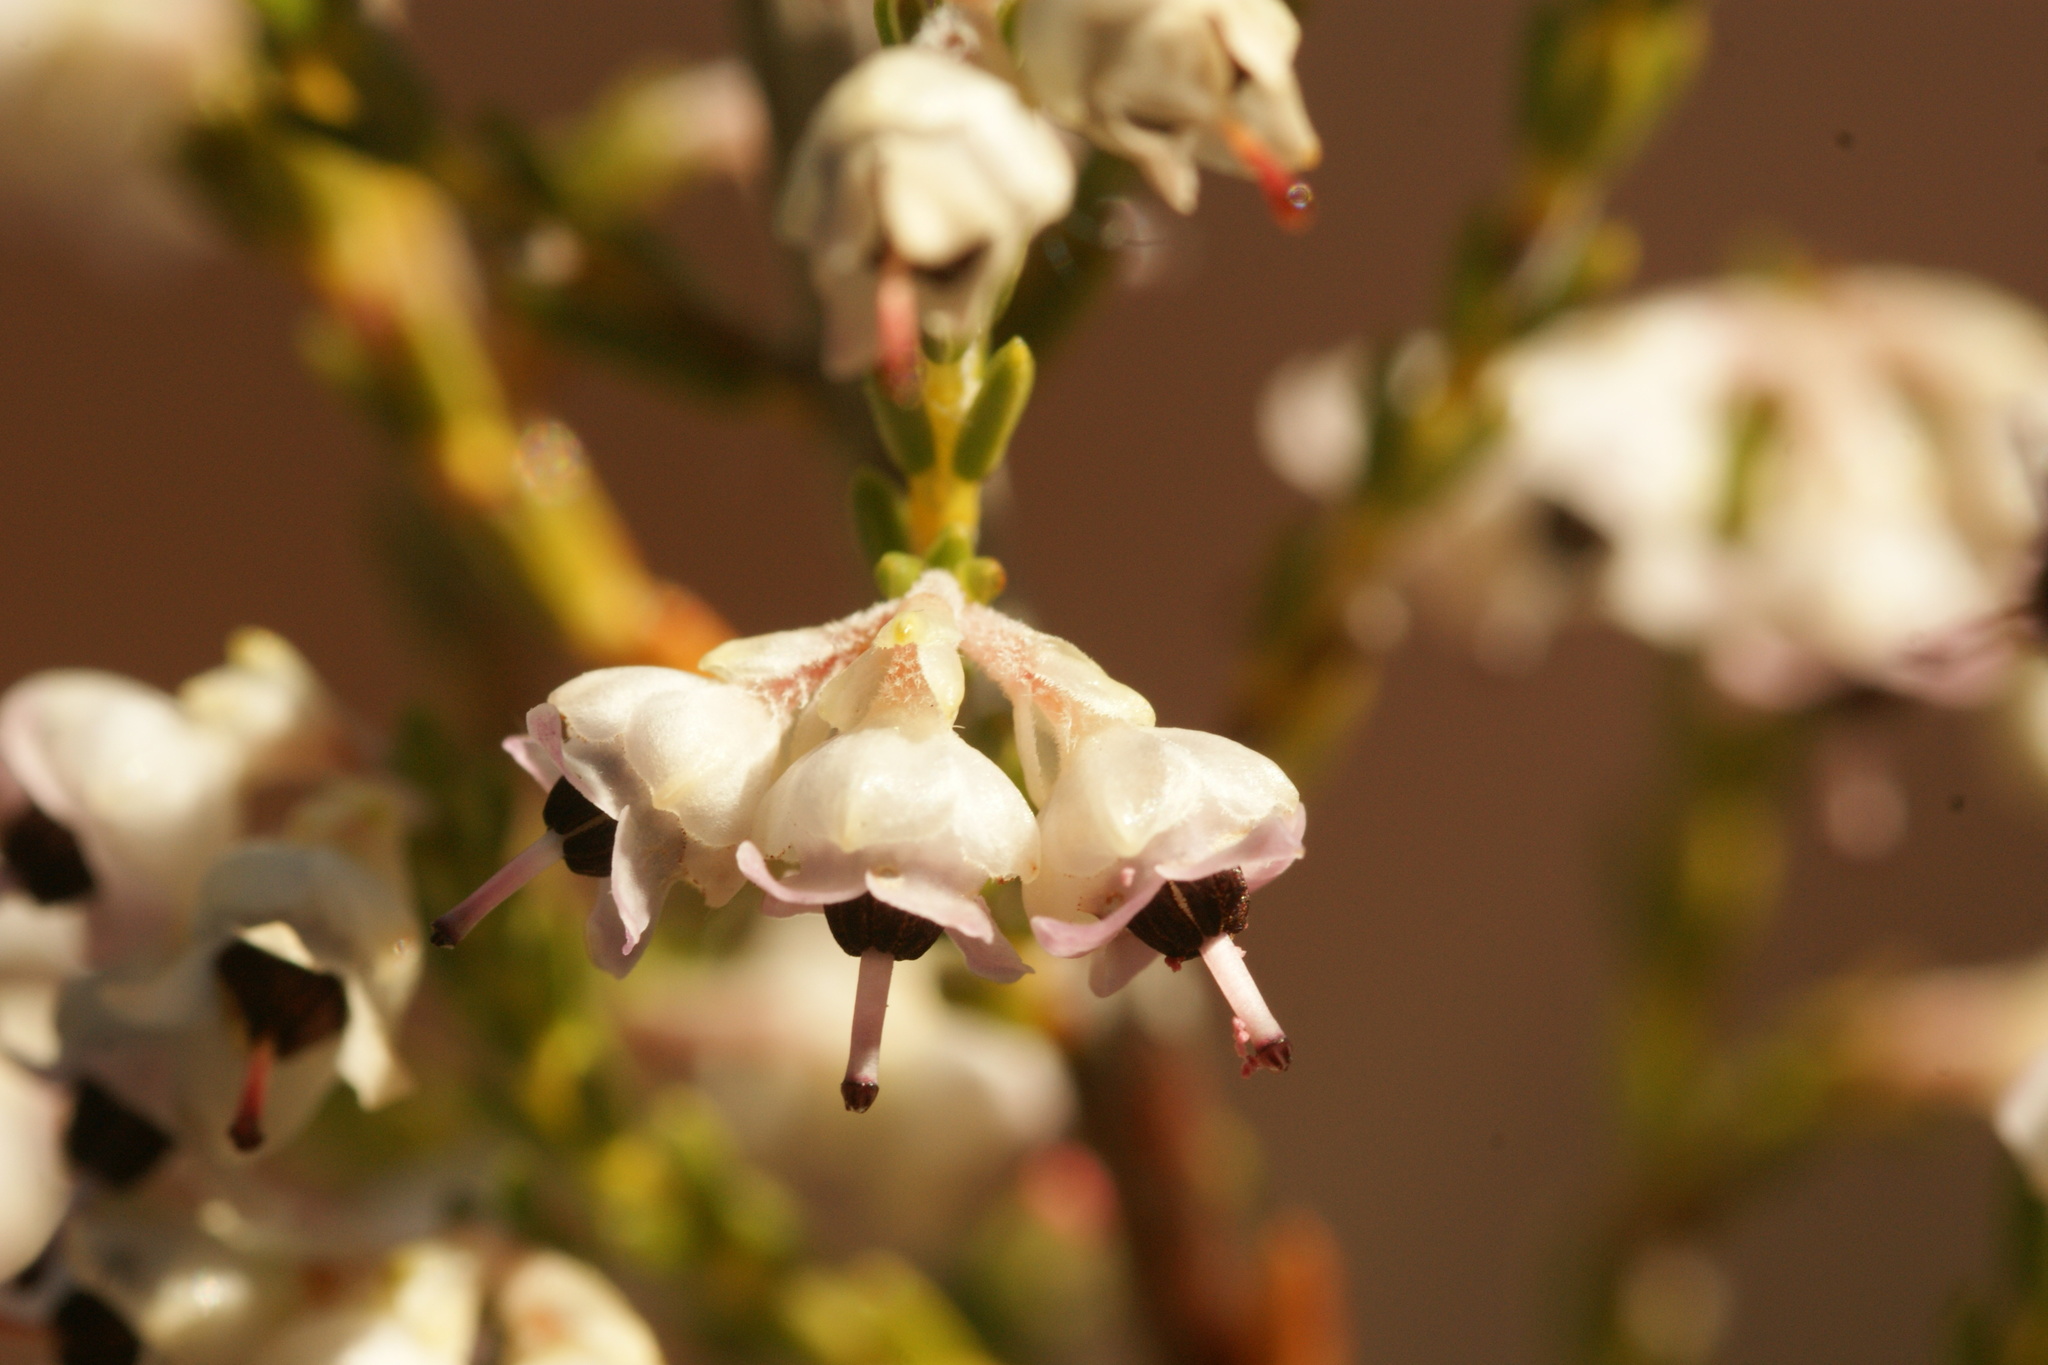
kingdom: Plantae
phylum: Tracheophyta
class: Magnoliopsida
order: Ericales
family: Ericaceae
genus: Erica
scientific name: Erica calycina
